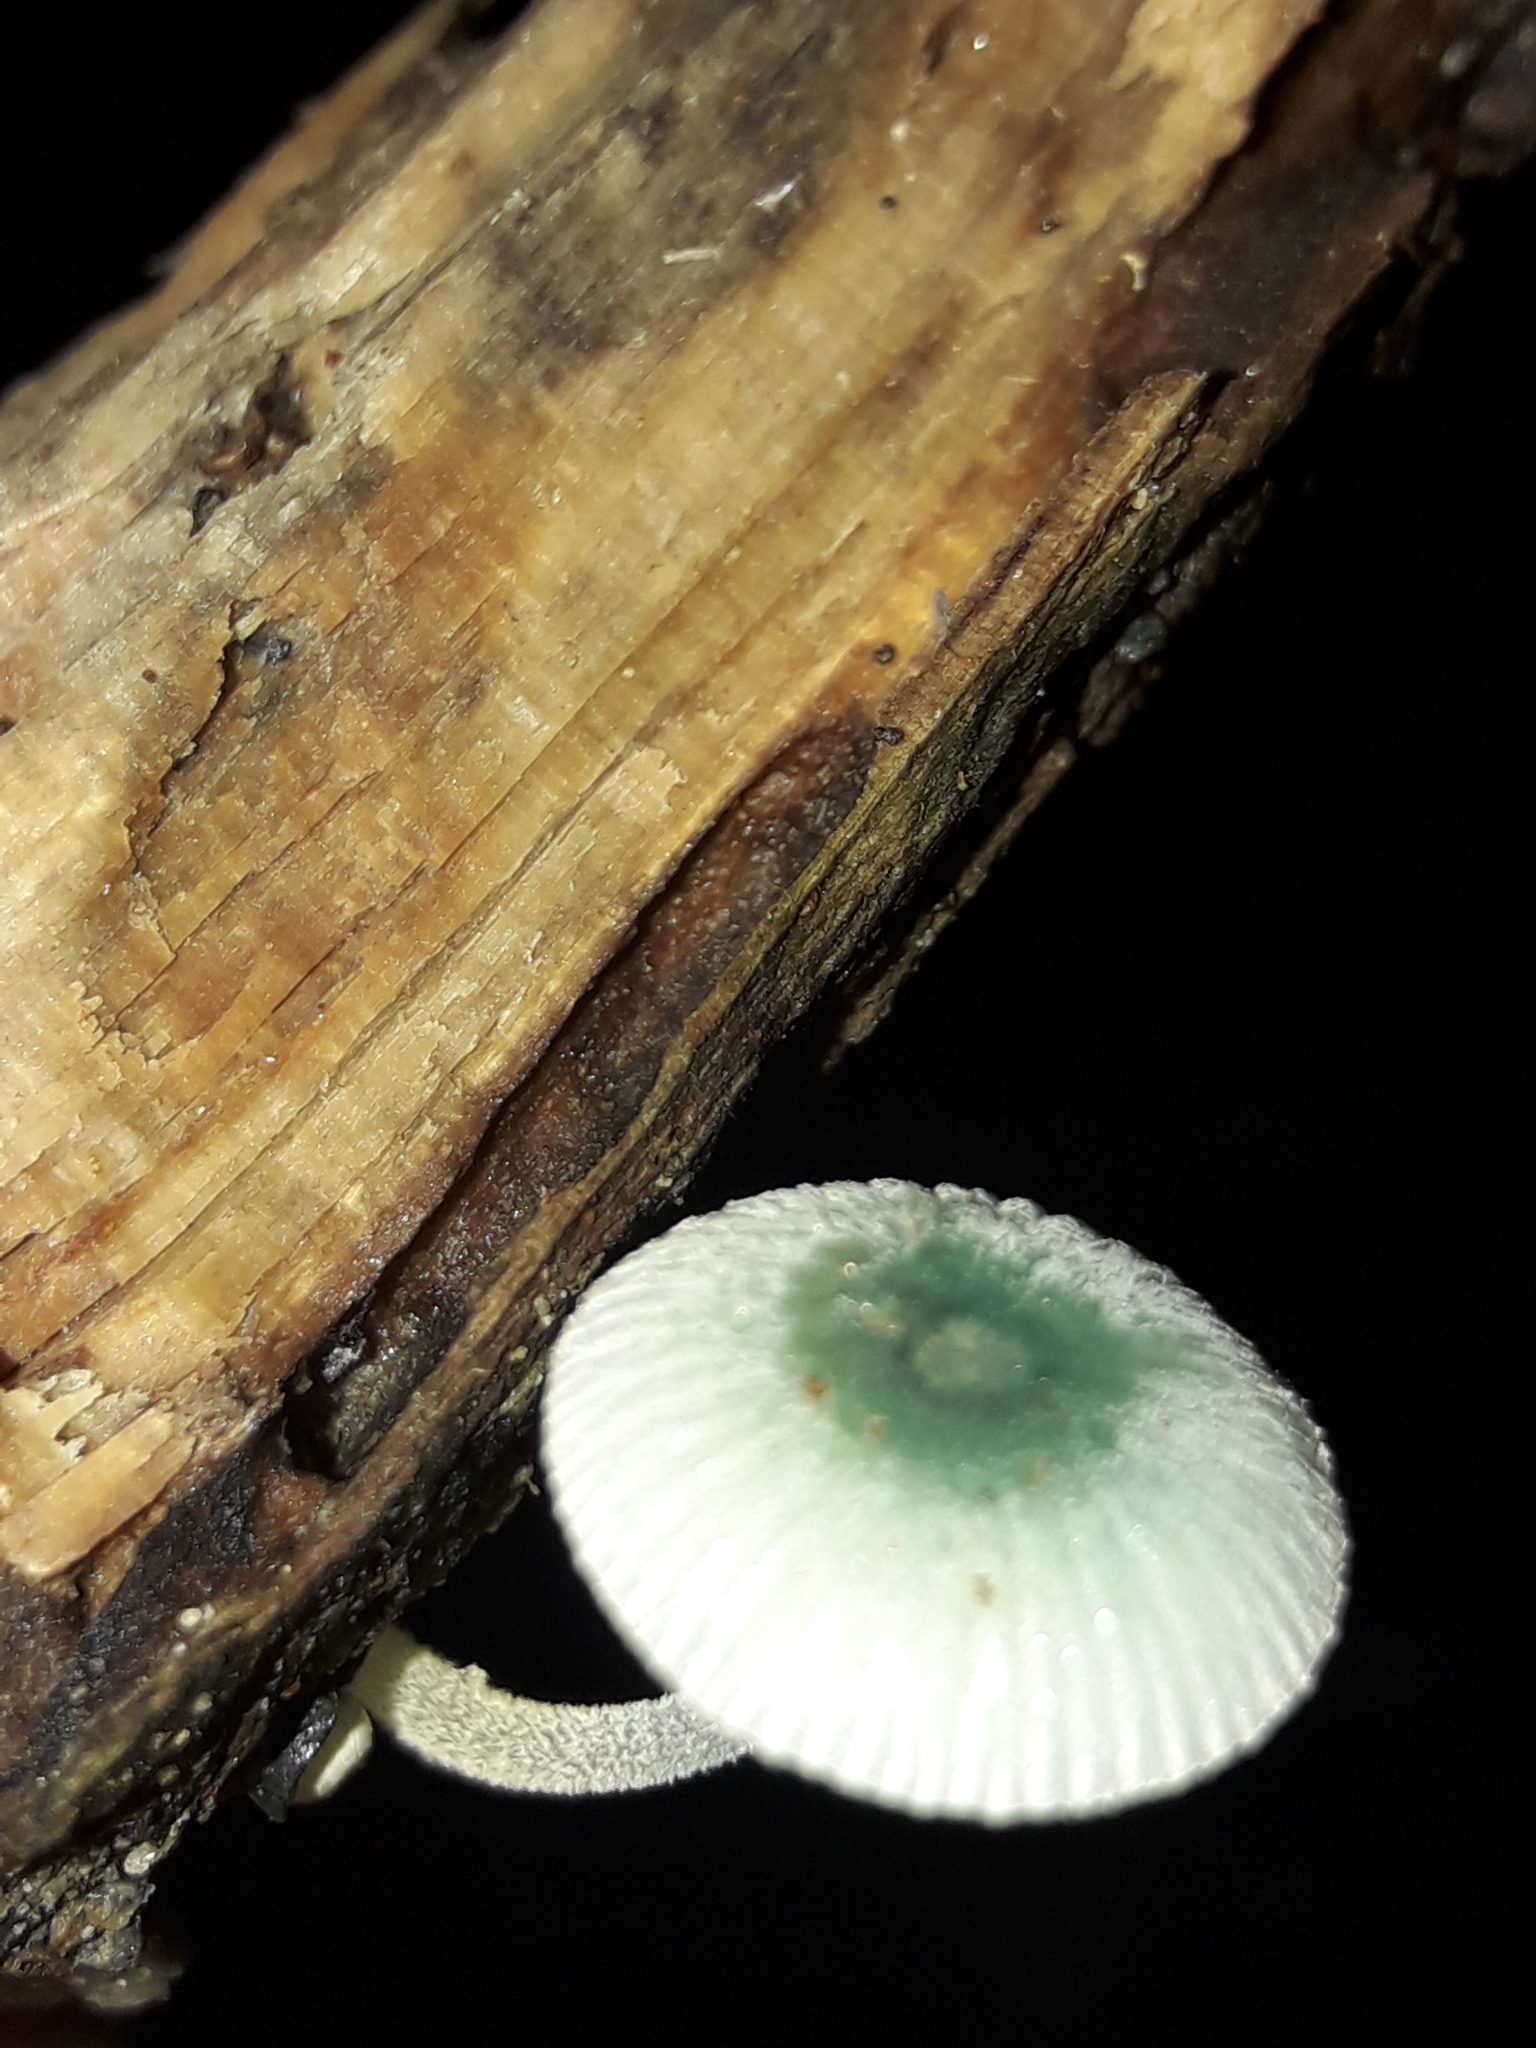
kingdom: Fungi
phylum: Basidiomycota
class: Agaricomycetes
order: Agaricales
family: Mycenaceae
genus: Mycena
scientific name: Mycena interrupta
